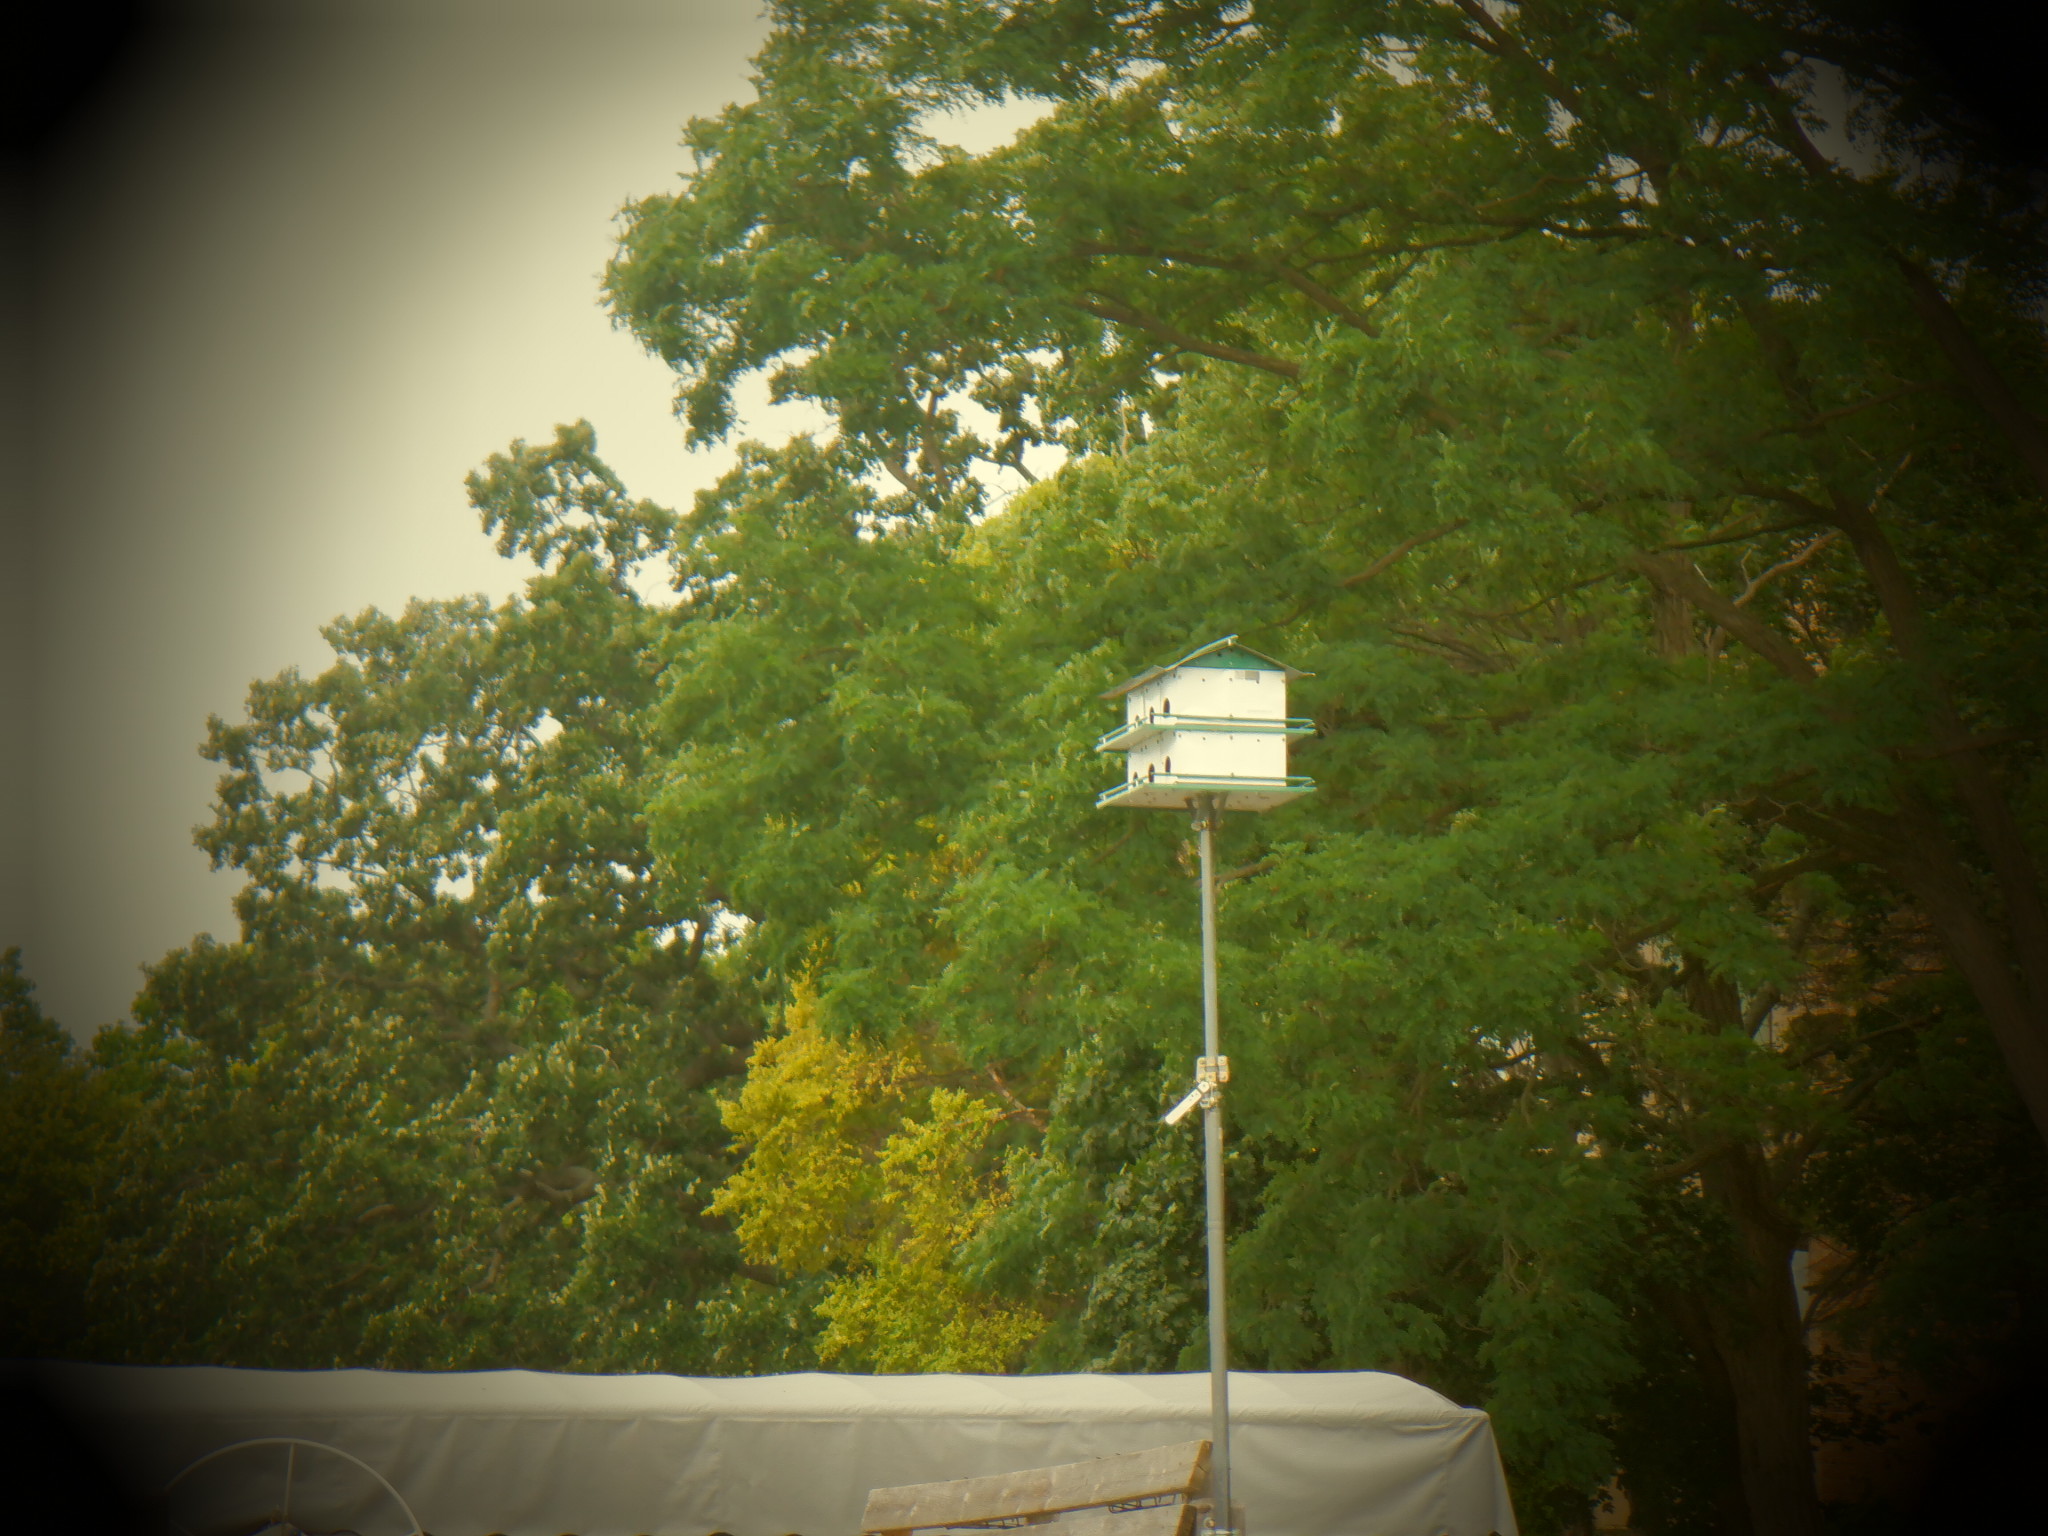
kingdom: Animalia
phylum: Chordata
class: Aves
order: Passeriformes
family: Hirundinidae
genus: Progne
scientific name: Progne subis
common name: Purple martin
